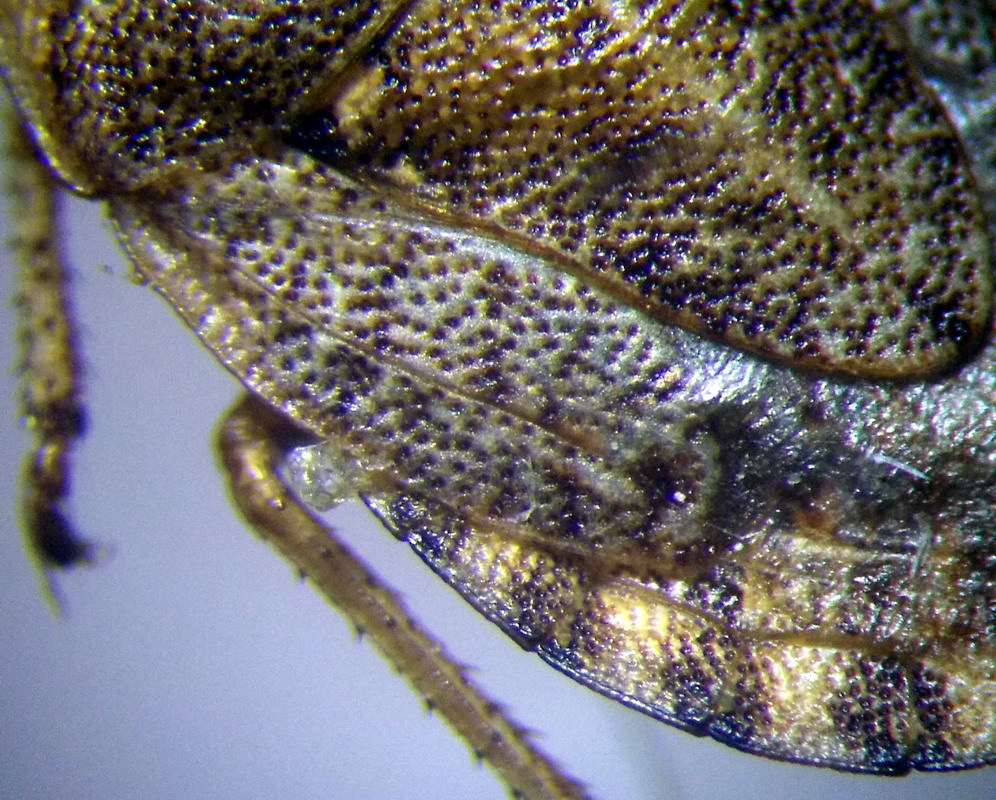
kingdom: Animalia
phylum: Arthropoda
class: Insecta
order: Hemiptera
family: Pentatomidae
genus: Sciocoris
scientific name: Sciocoris macrocephalus
